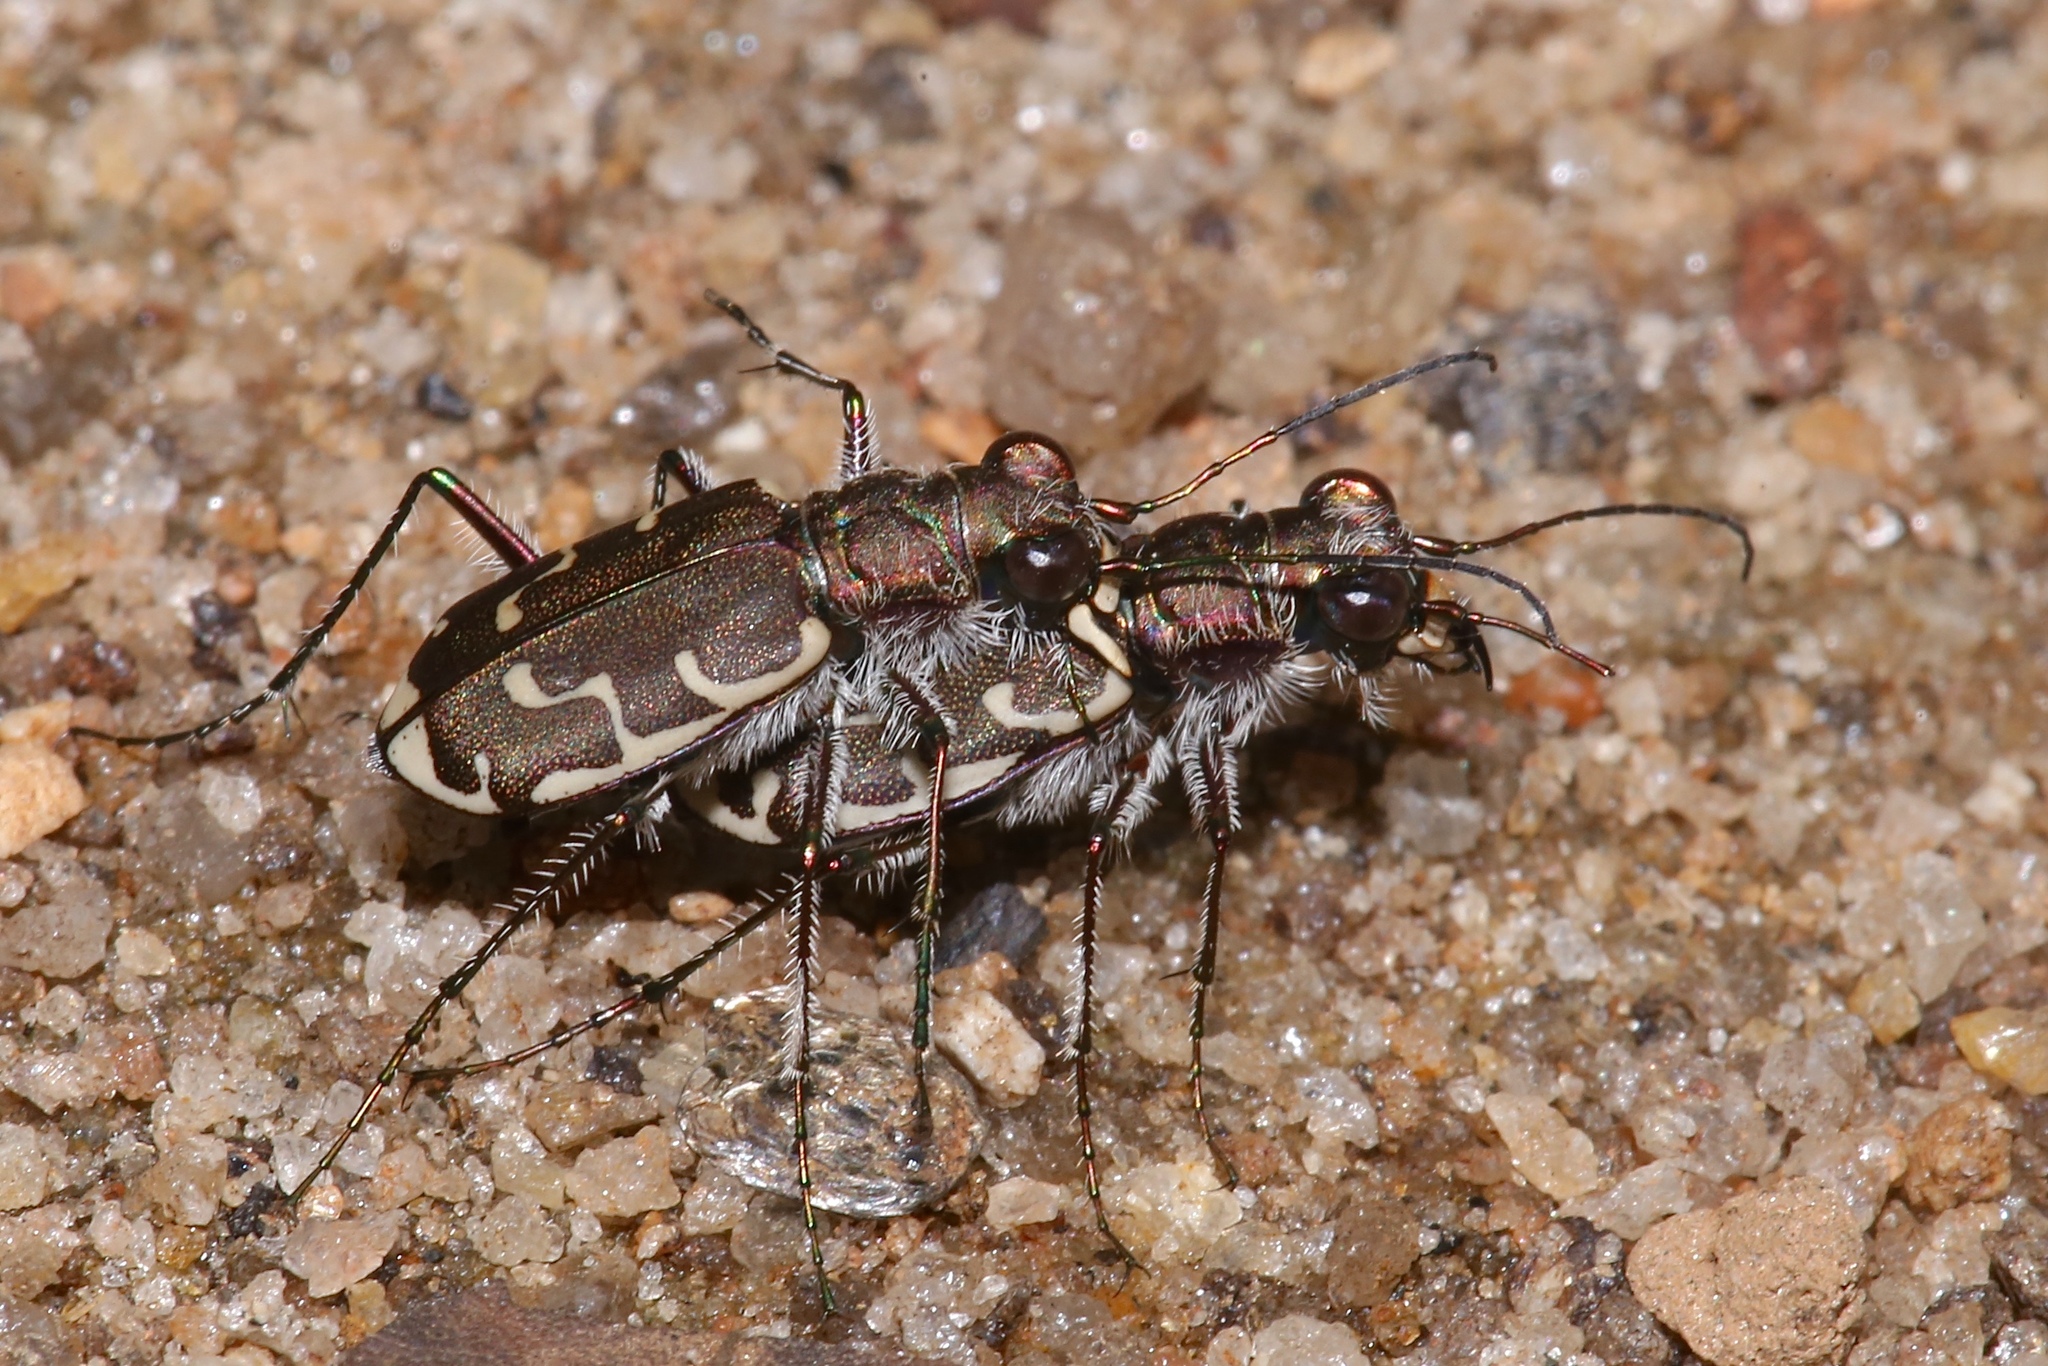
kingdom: Animalia
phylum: Arthropoda
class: Insecta
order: Coleoptera
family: Carabidae
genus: Cicindela
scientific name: Cicindela repanda
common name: Bronzed tiger beetle
